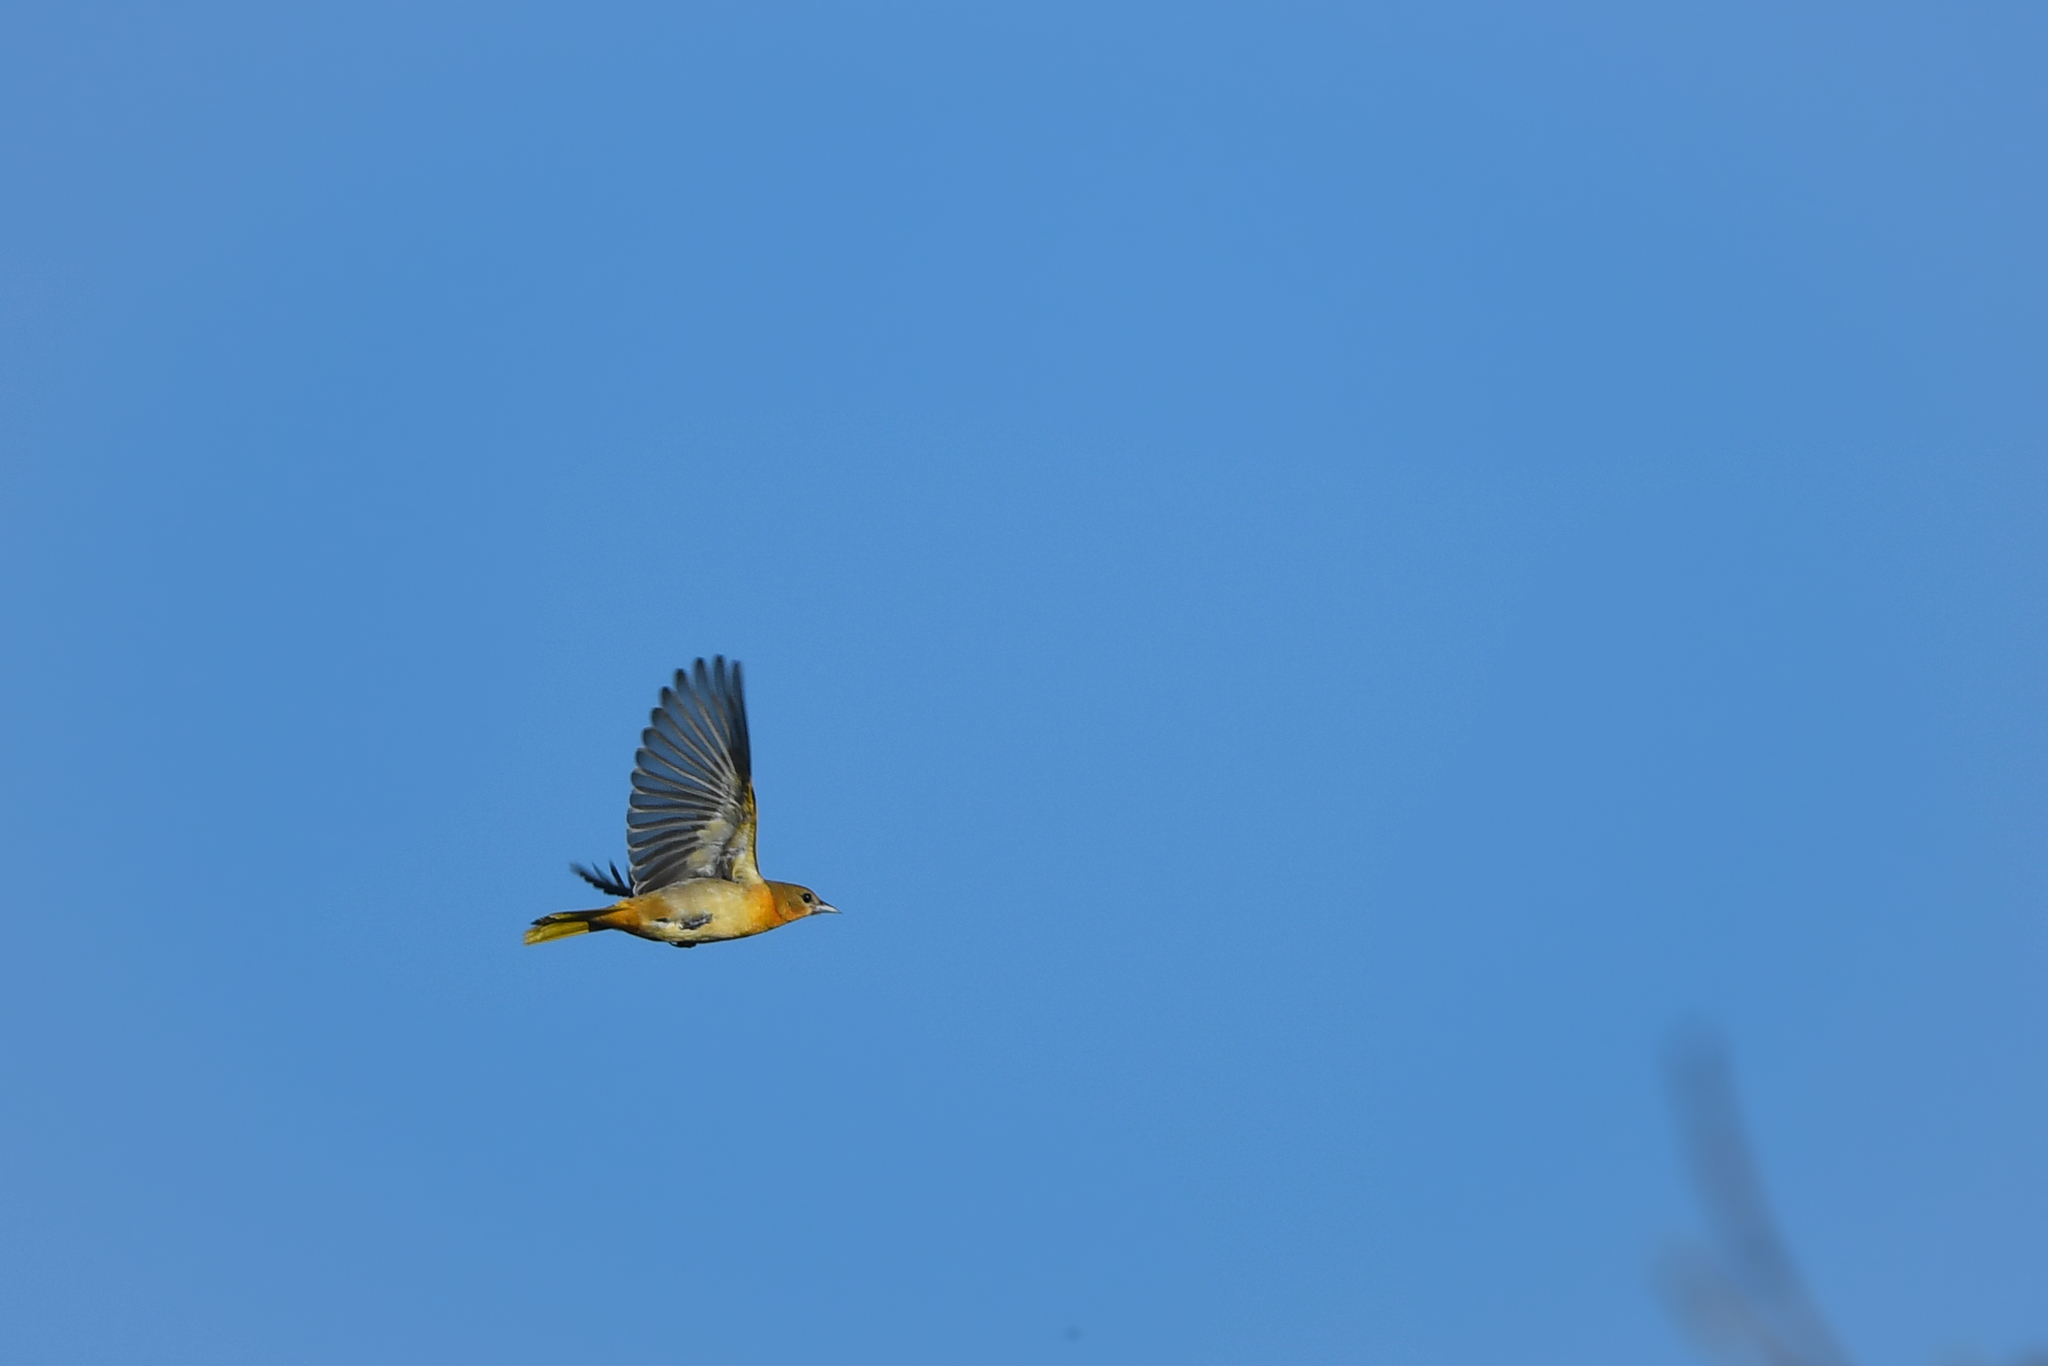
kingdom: Animalia
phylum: Chordata
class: Aves
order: Passeriformes
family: Icteridae
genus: Icterus
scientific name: Icterus galbula
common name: Baltimore oriole
